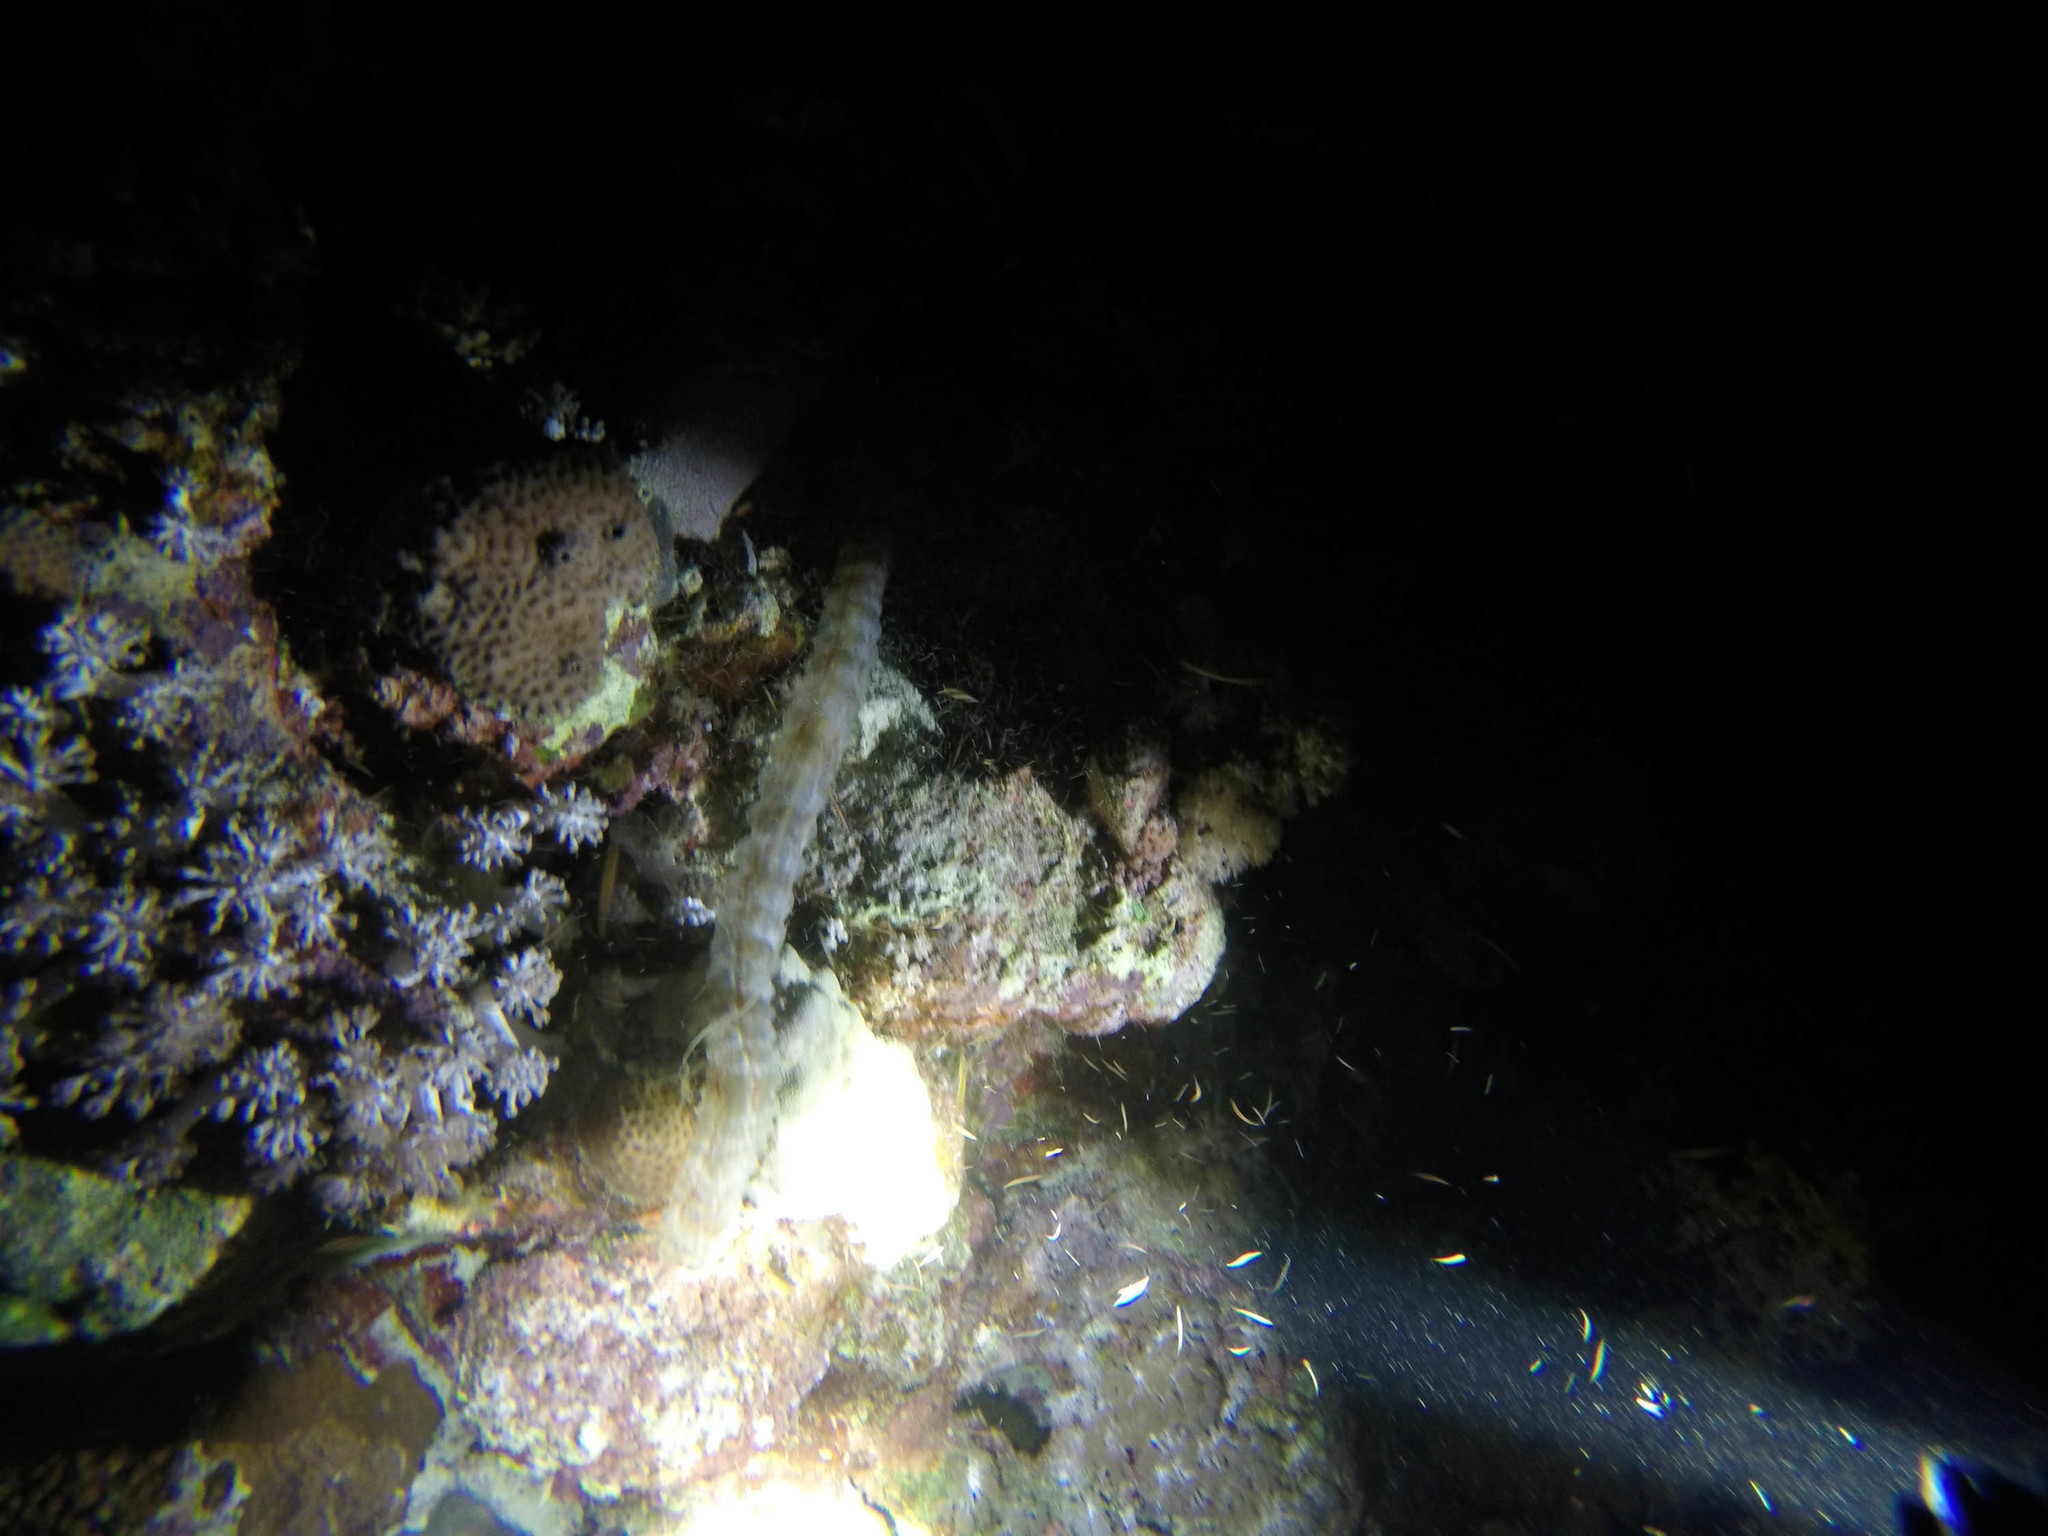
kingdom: Animalia
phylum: Echinodermata
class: Holothuroidea
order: Apodida
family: Synaptidae
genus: Euapta
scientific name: Euapta godeffroyi
